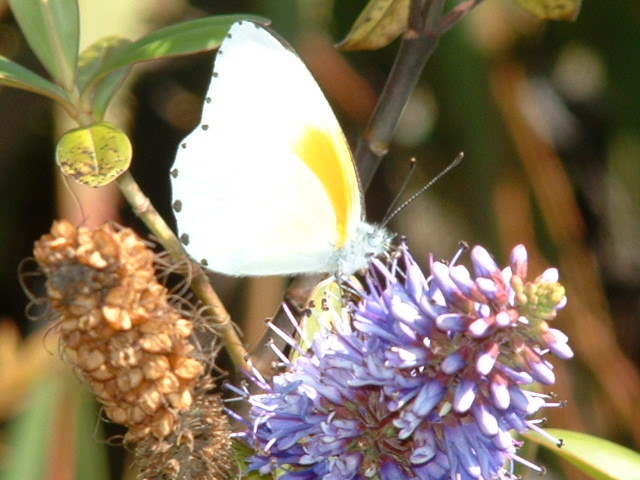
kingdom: Animalia
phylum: Arthropoda
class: Insecta
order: Lepidoptera
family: Pieridae
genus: Mylothris
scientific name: Mylothris rueppellii
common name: Twin dotted border
